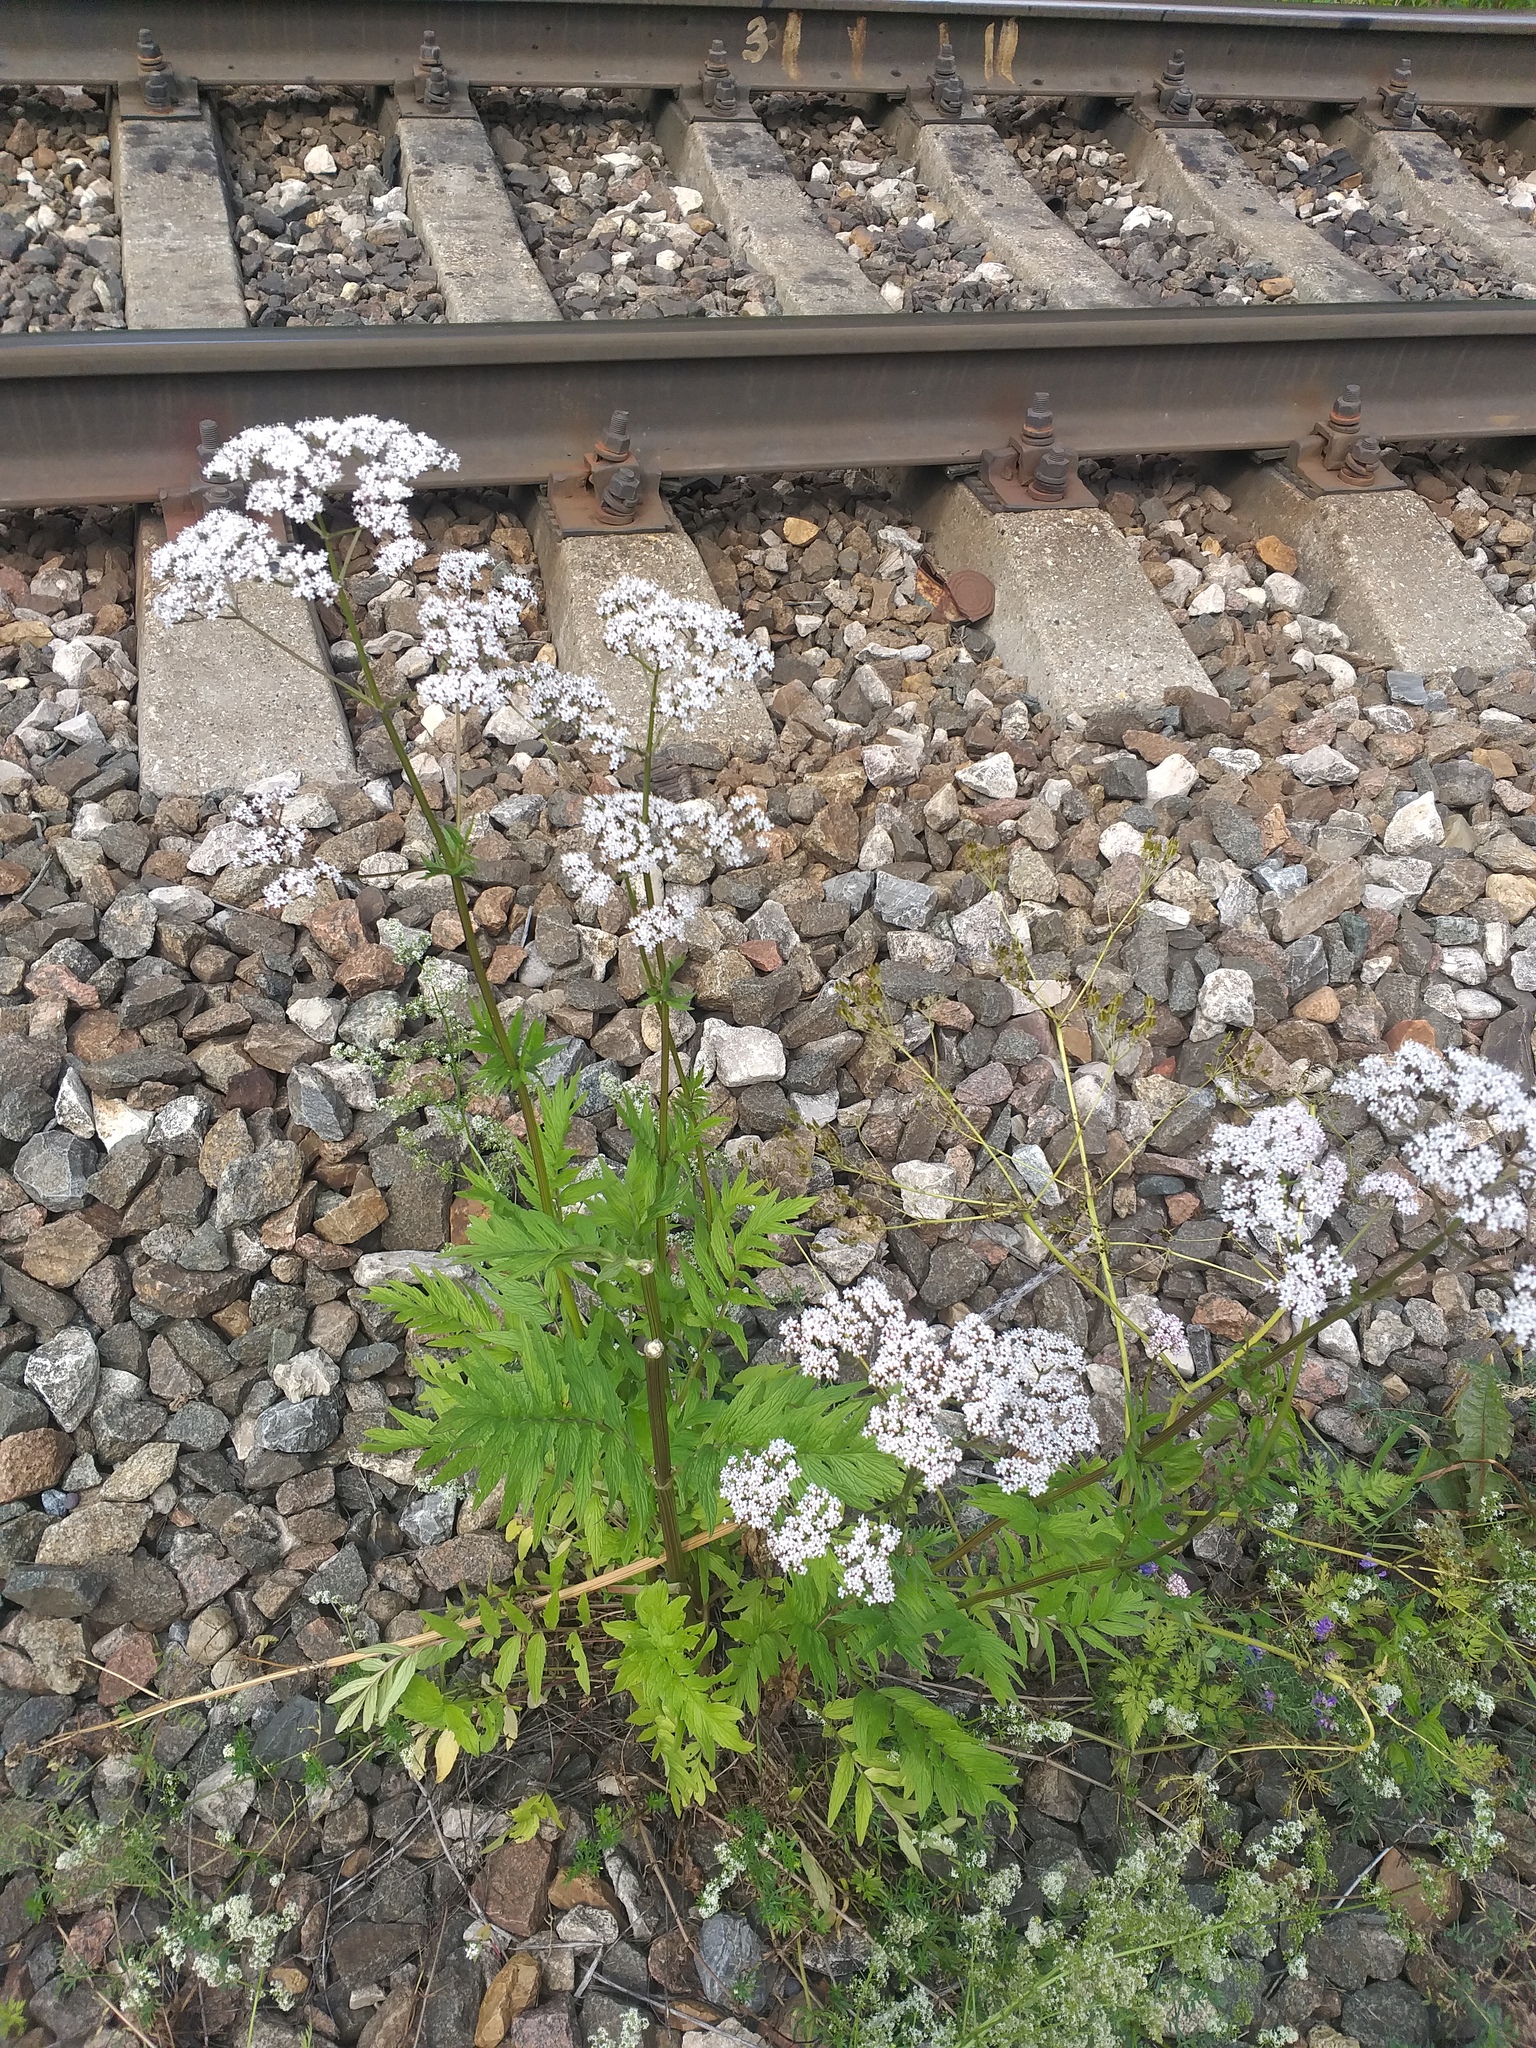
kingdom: Plantae
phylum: Tracheophyta
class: Magnoliopsida
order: Dipsacales
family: Caprifoliaceae
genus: Valeriana
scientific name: Valeriana officinalis
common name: Common valerian
